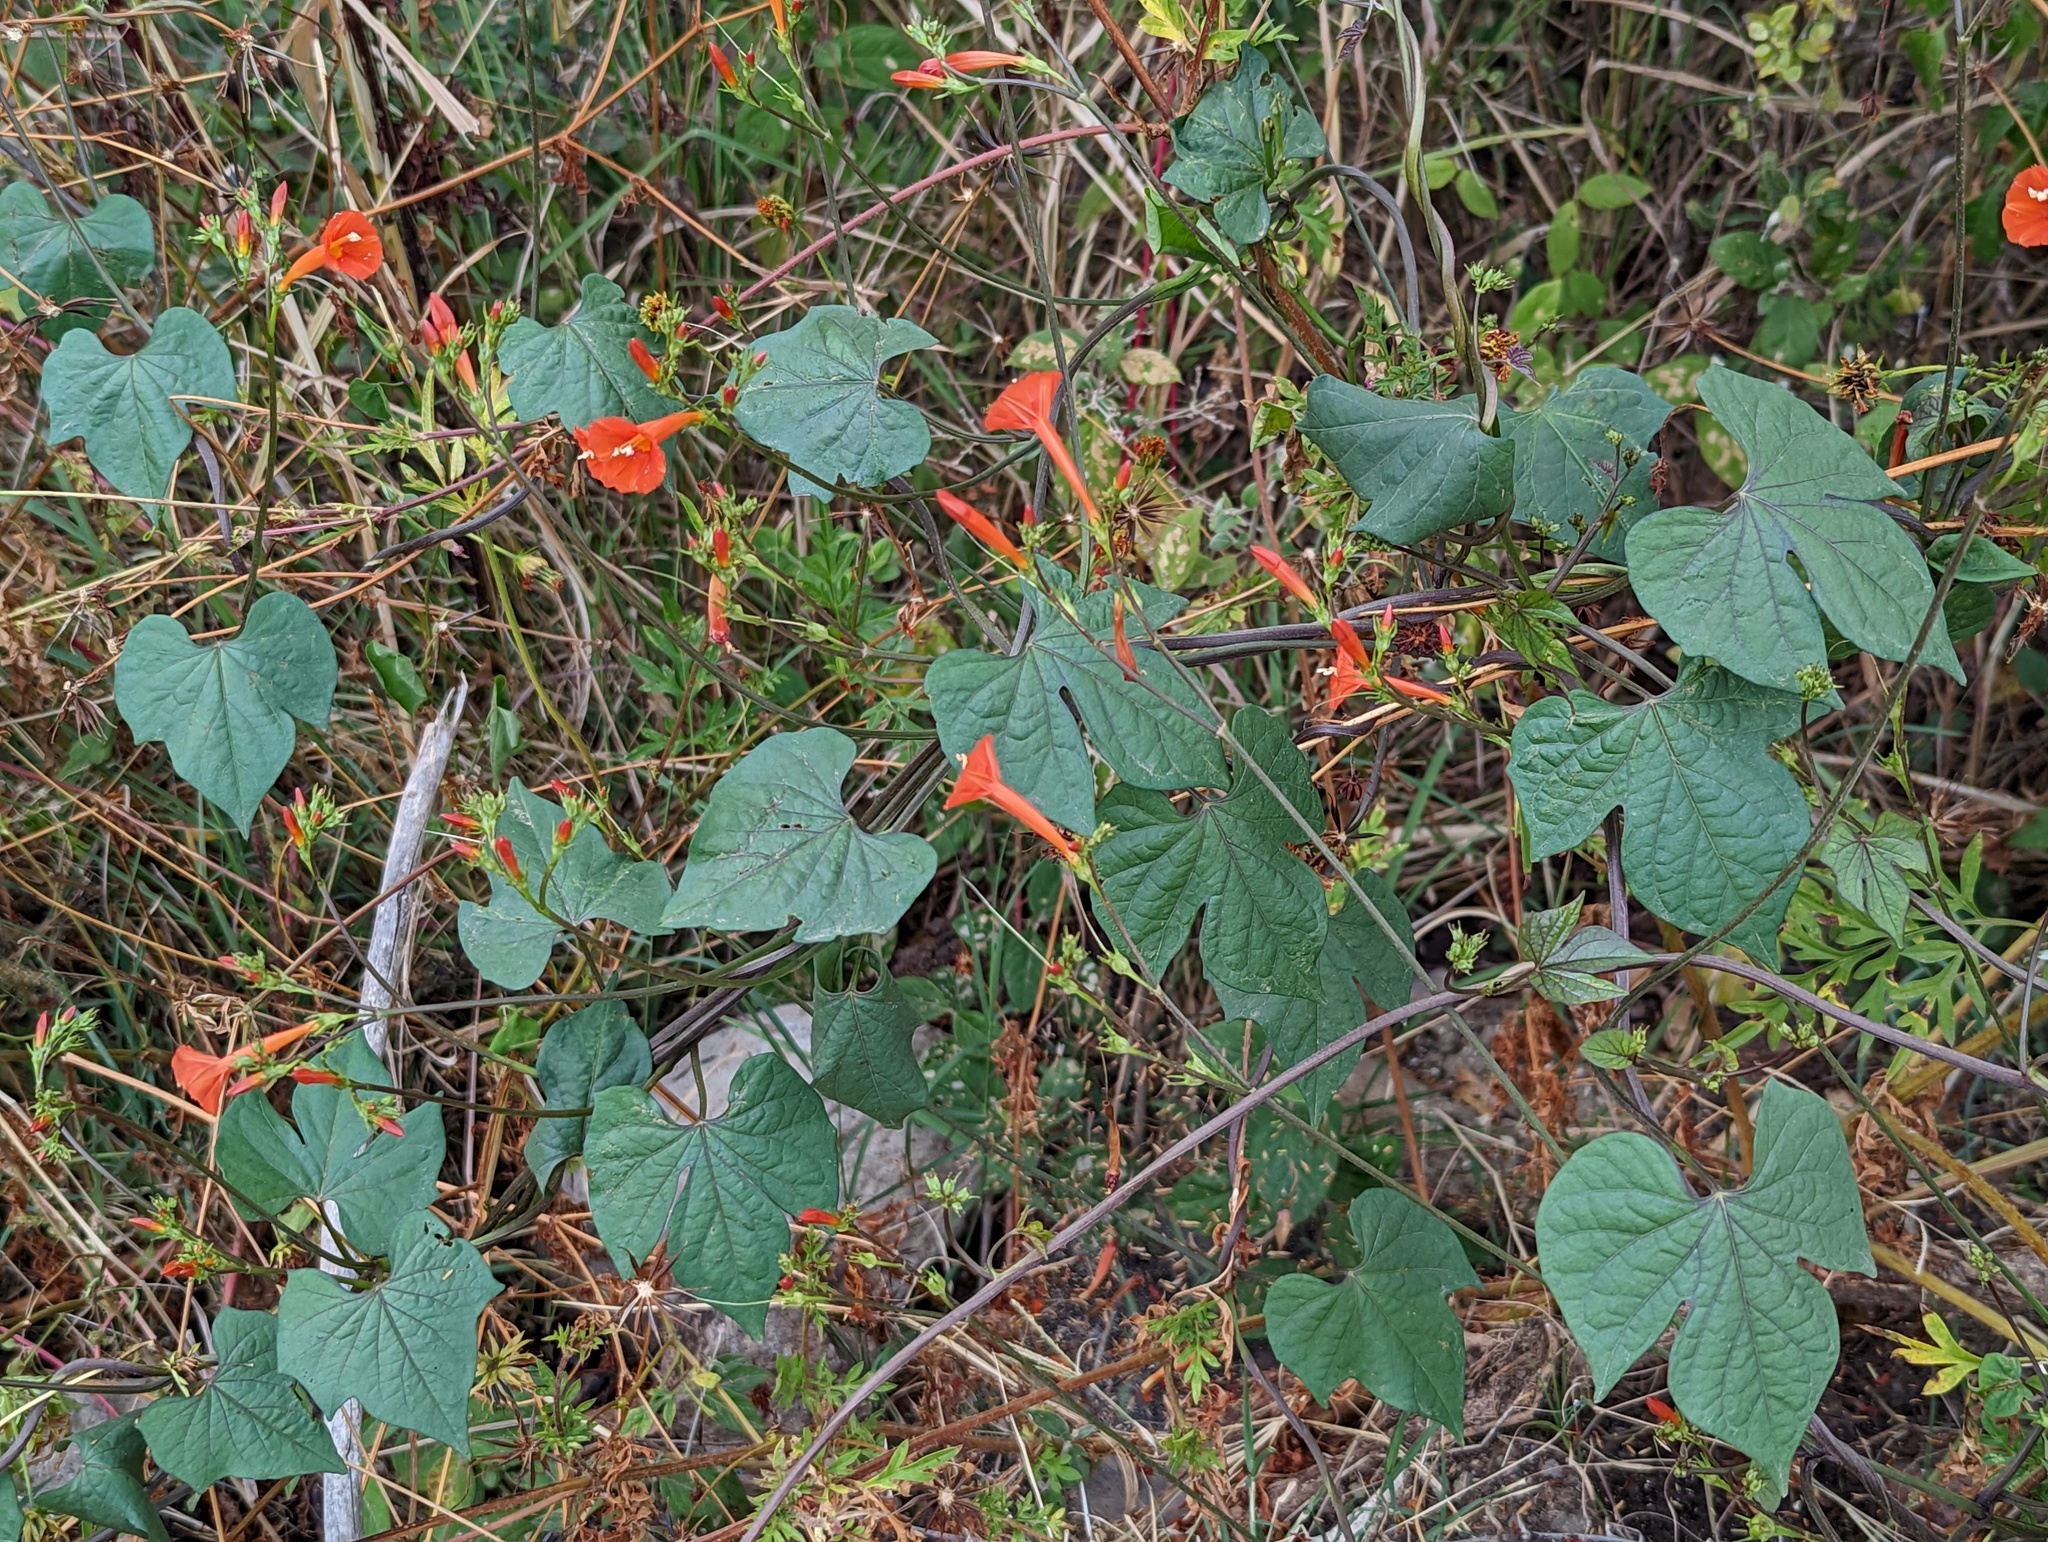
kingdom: Plantae
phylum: Tracheophyta
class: Magnoliopsida
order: Solanales
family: Convolvulaceae
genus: Ipomoea
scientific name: Ipomoea hederifolia
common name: Ivy-leaf morning-glory
